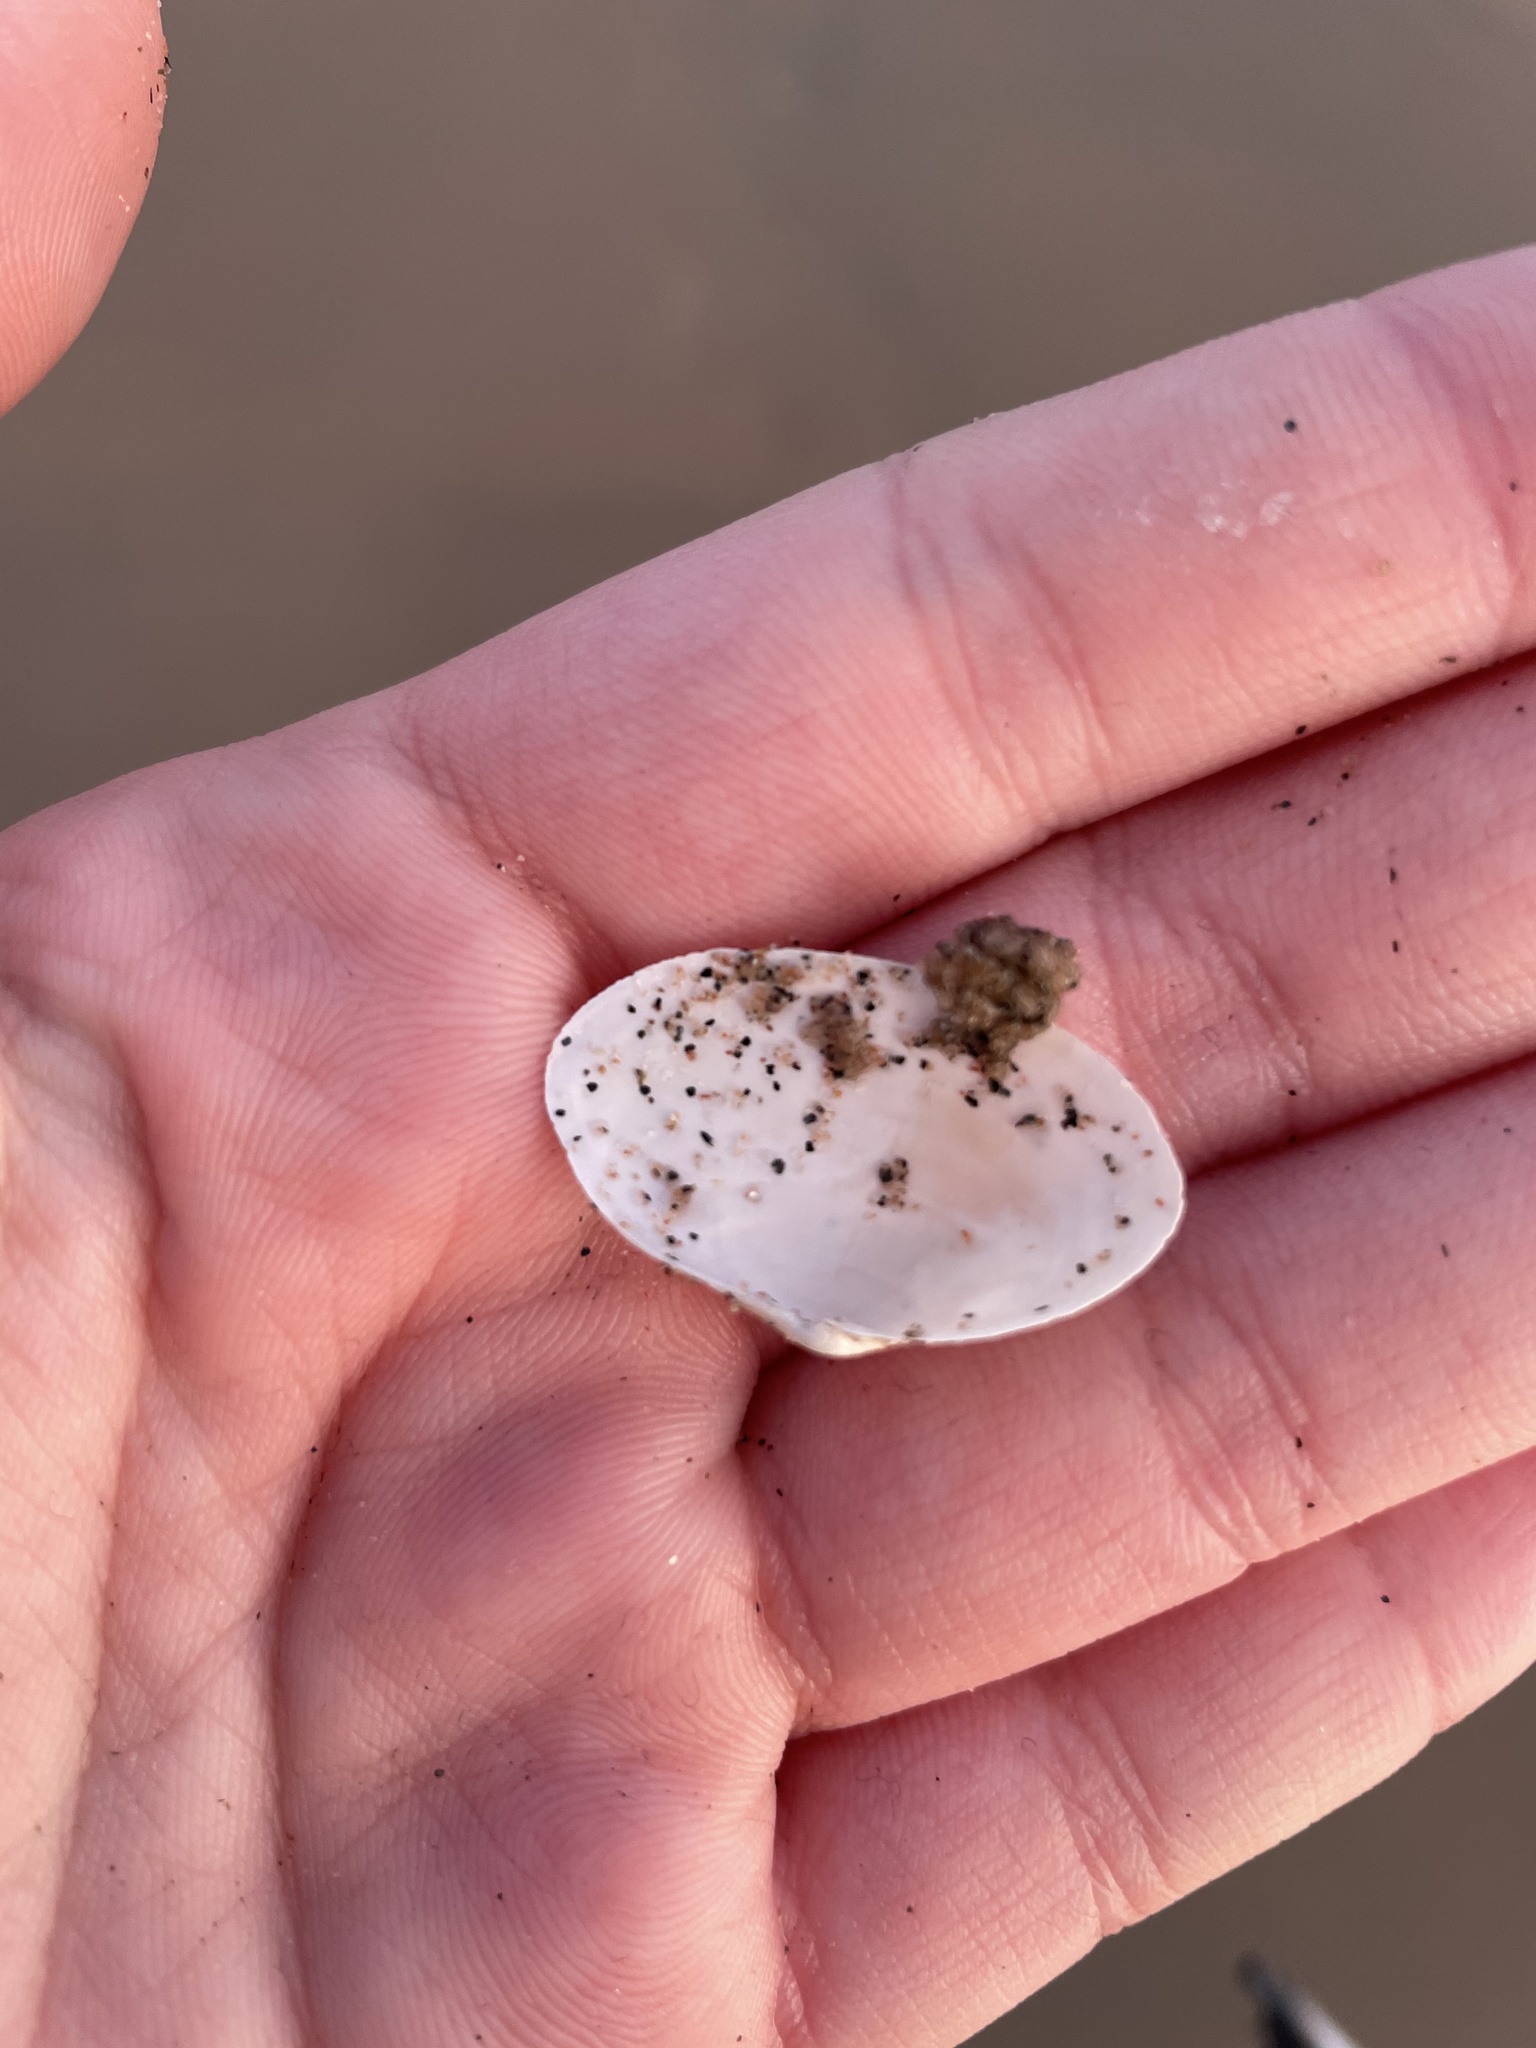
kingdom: Animalia
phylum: Mollusca
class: Bivalvia
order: Myida
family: Myidae
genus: Mya
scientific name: Mya arenaria
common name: Soft-shelled clam
